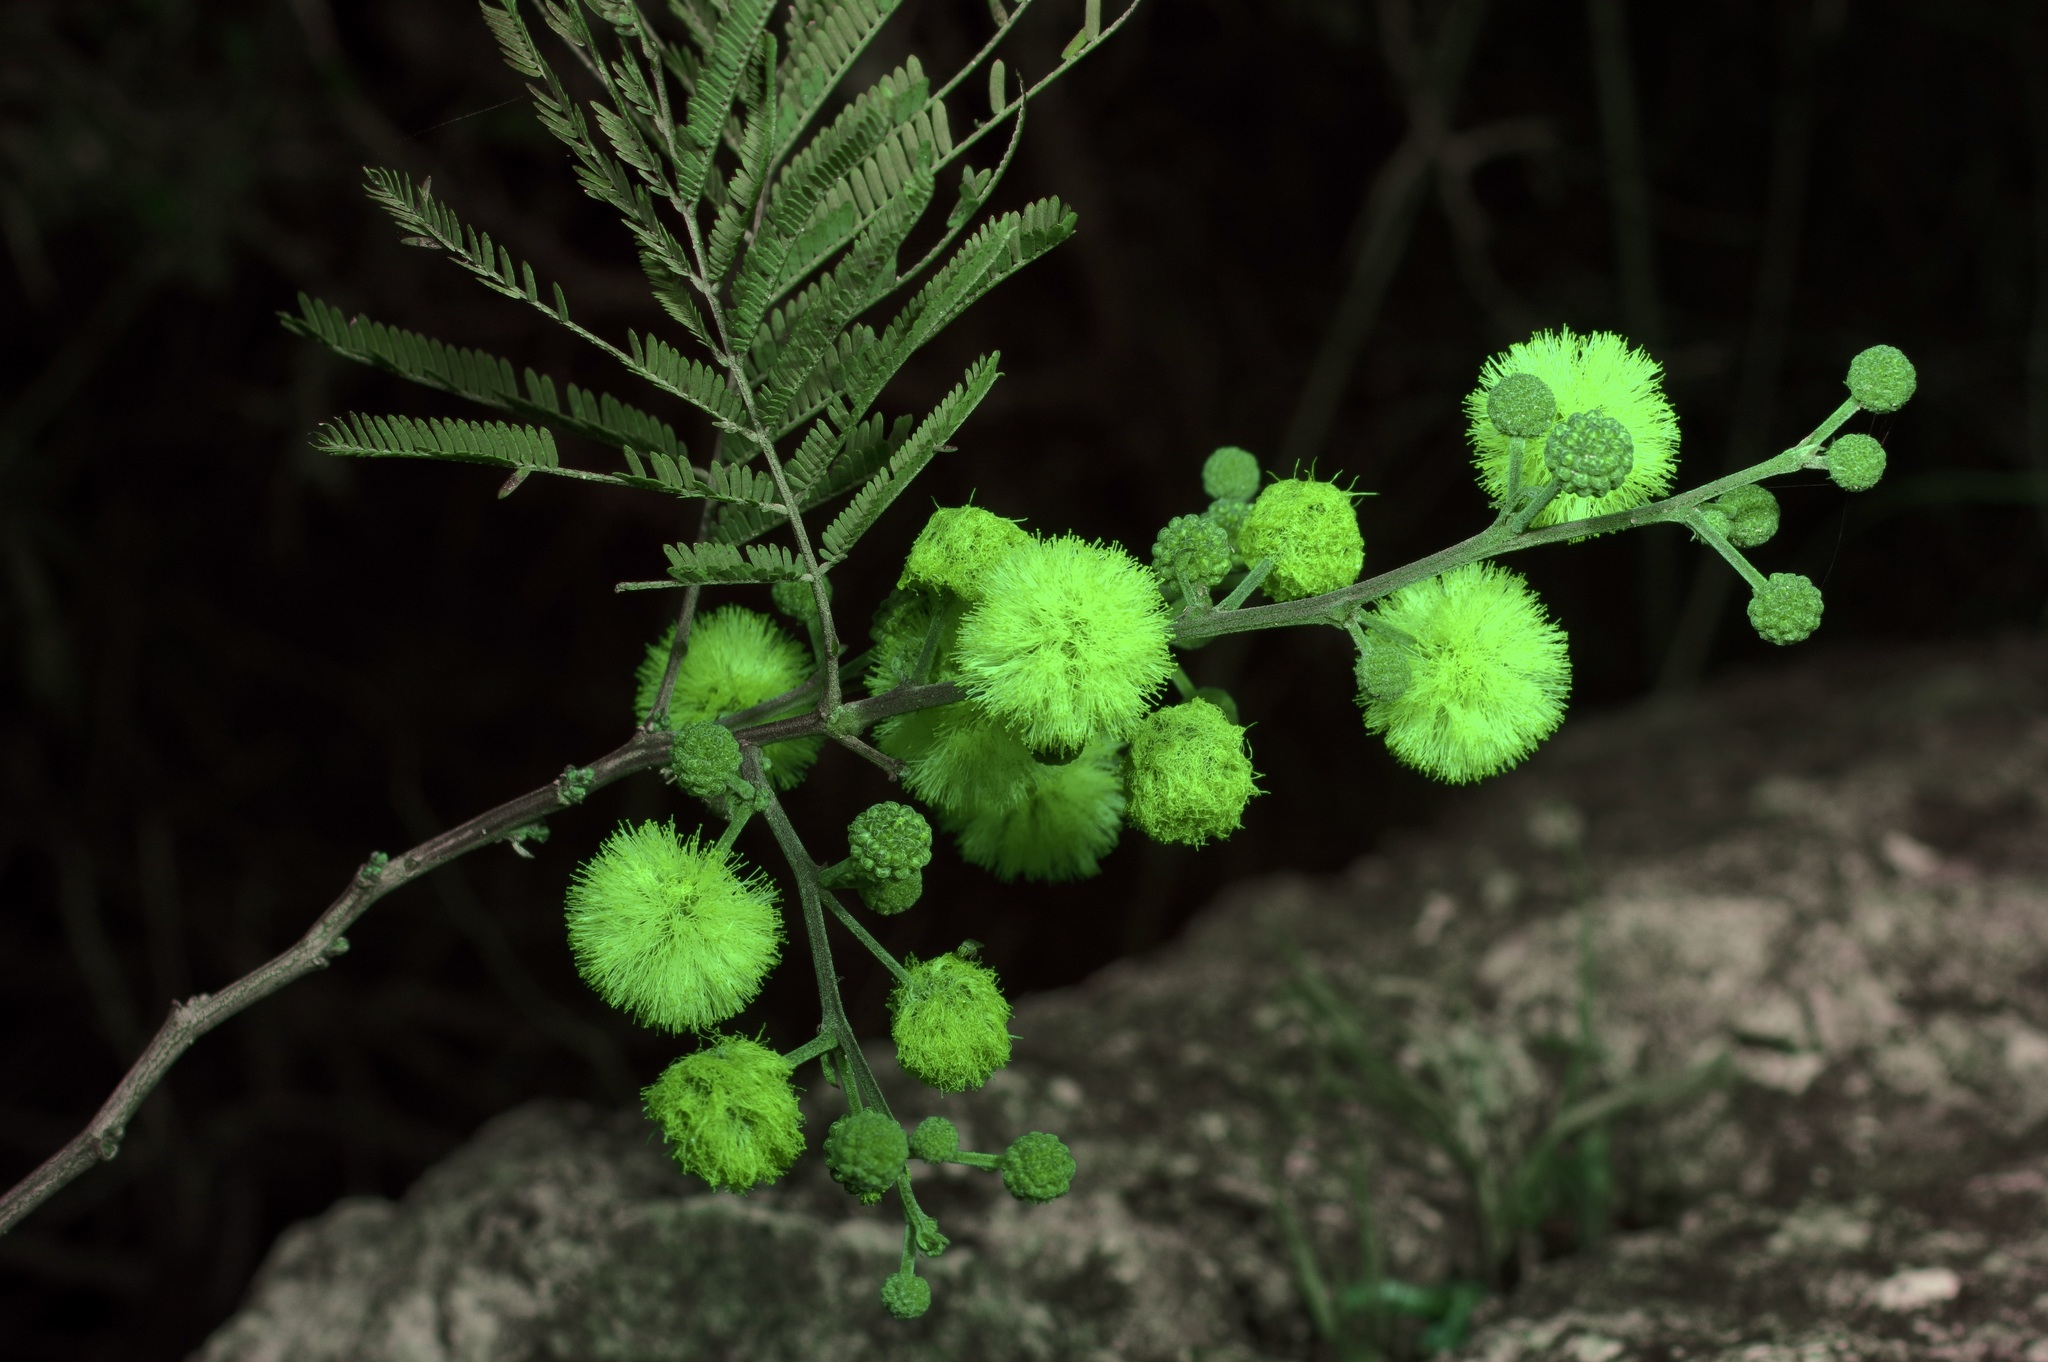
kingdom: Plantae
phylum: Tracheophyta
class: Magnoliopsida
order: Fabales
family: Fabaceae
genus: Senegalia
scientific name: Senegalia berlandieri
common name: Berlandier acacia
